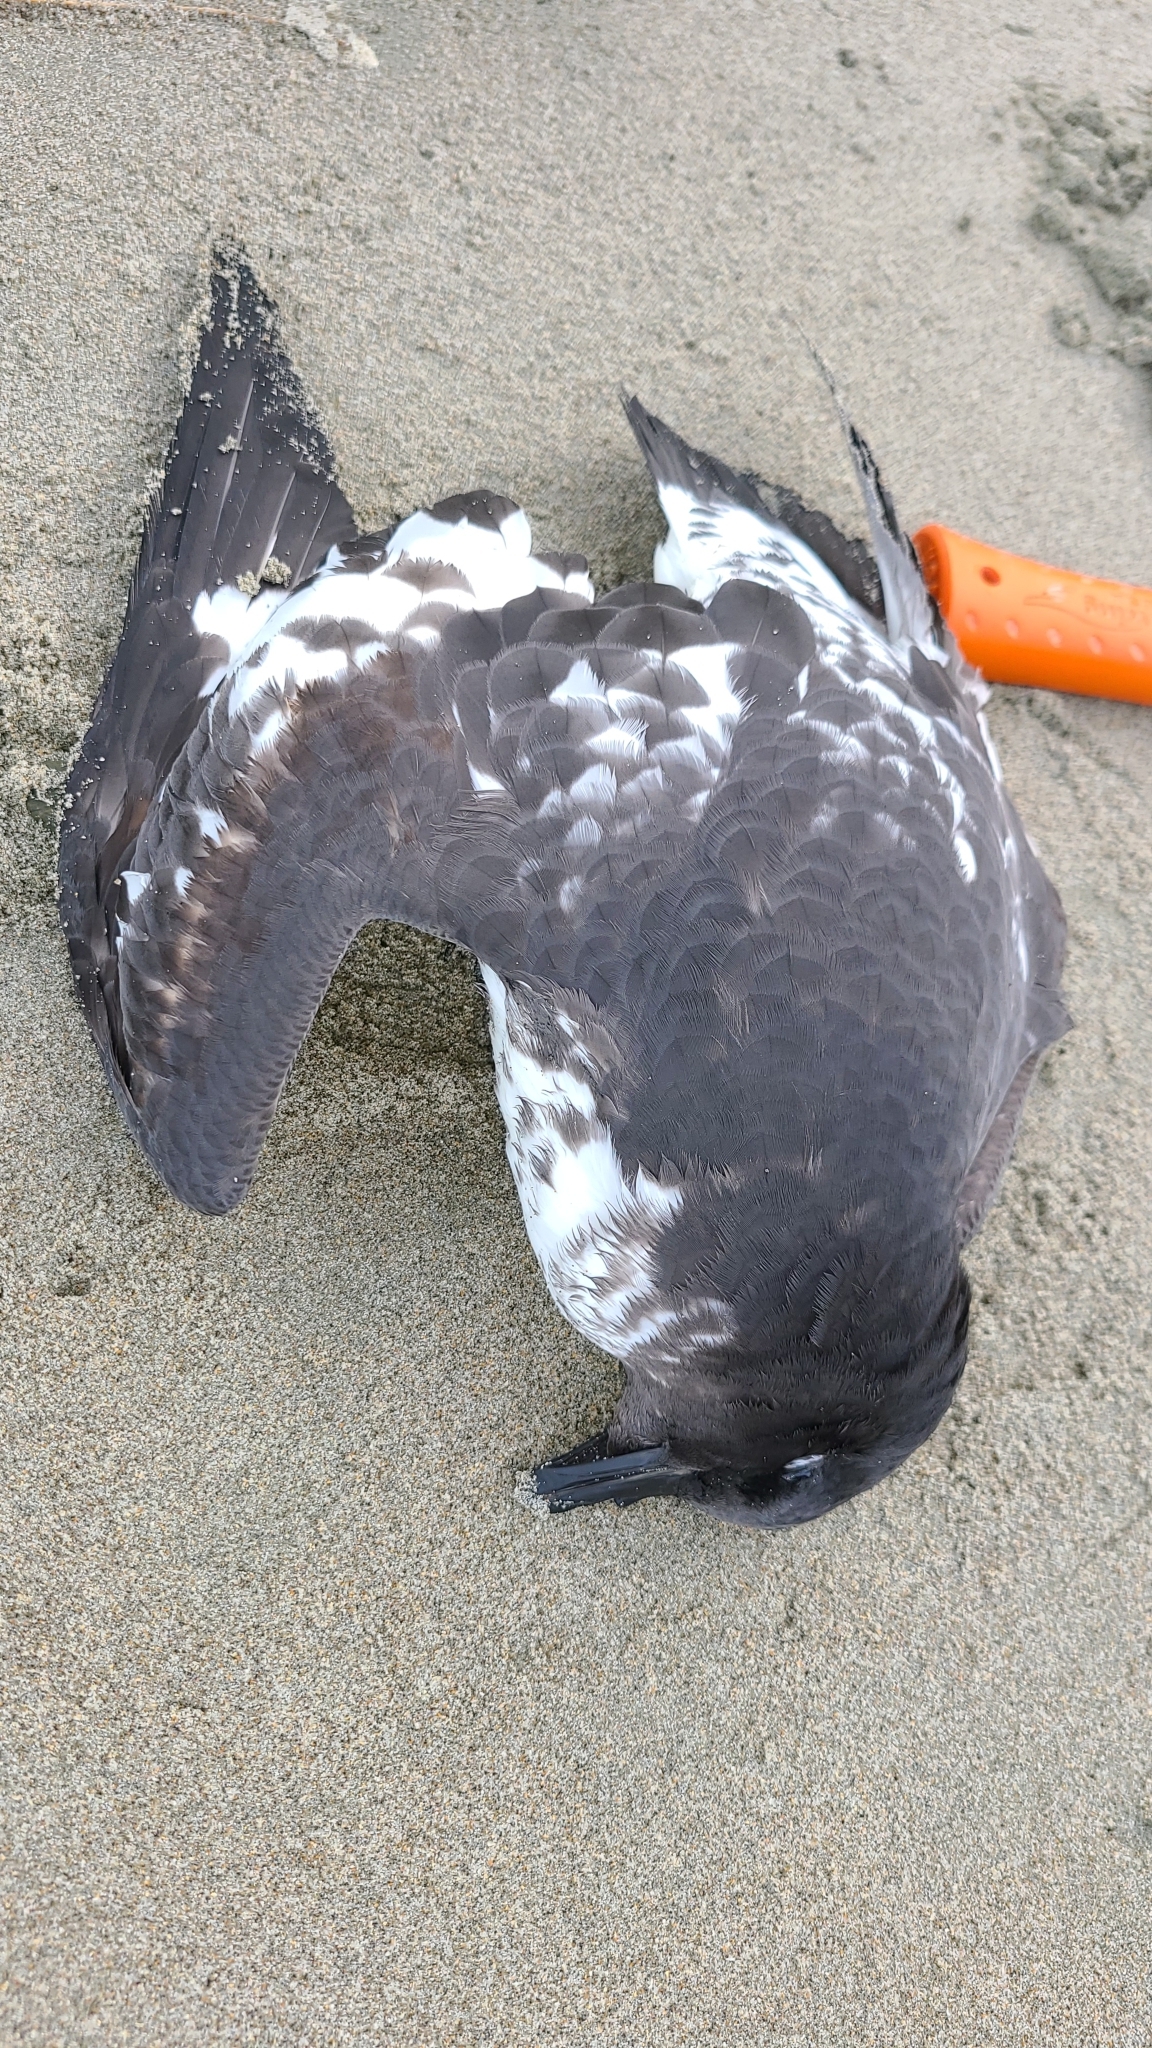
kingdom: Animalia
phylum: Chordata
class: Aves
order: Procellariiformes
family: Procellariidae
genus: Daption
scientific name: Daption capense
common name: Cape petrel
